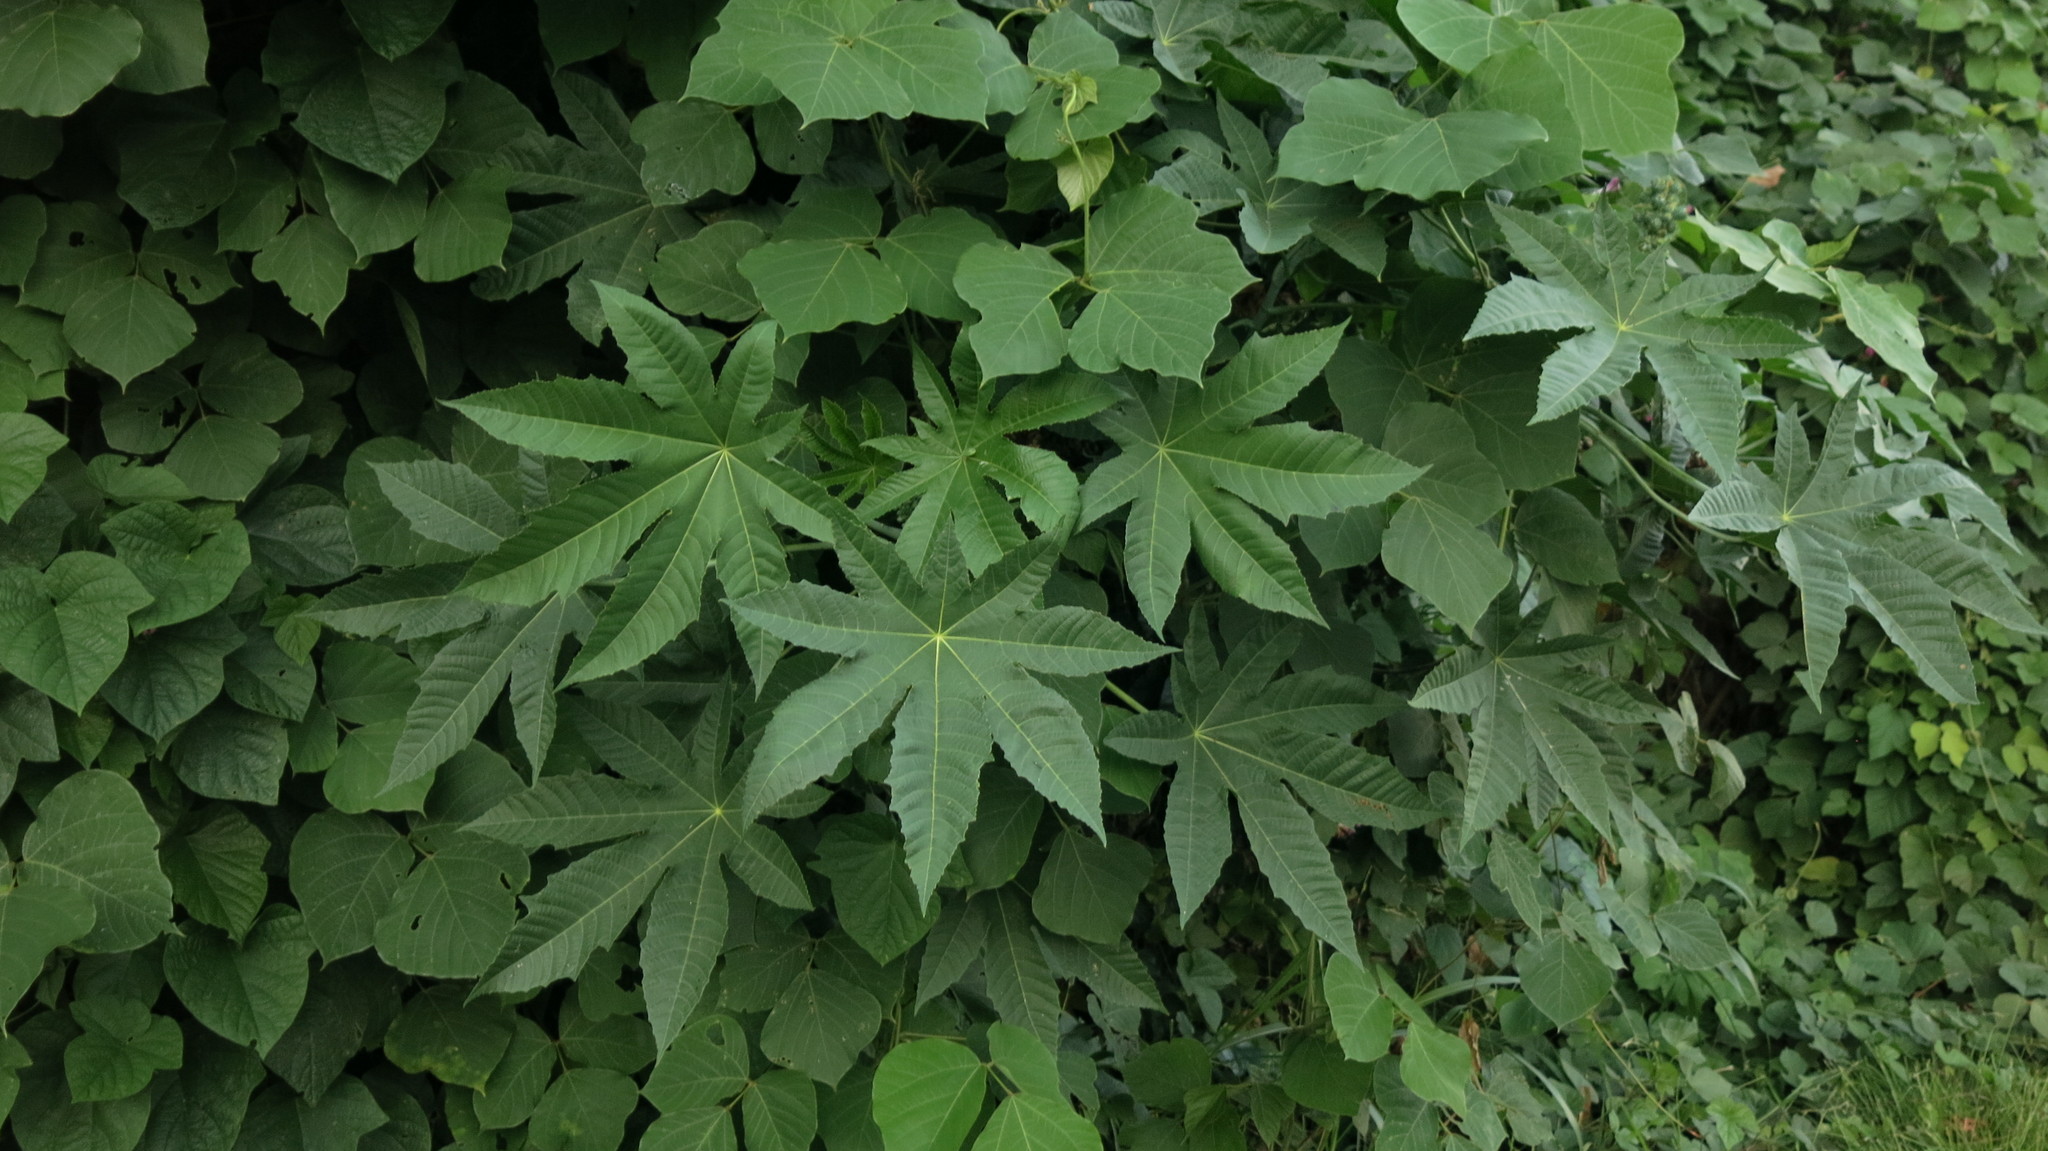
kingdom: Plantae
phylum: Tracheophyta
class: Magnoliopsida
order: Malpighiales
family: Euphorbiaceae
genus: Ricinus
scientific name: Ricinus communis
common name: Castor-oil-plant
